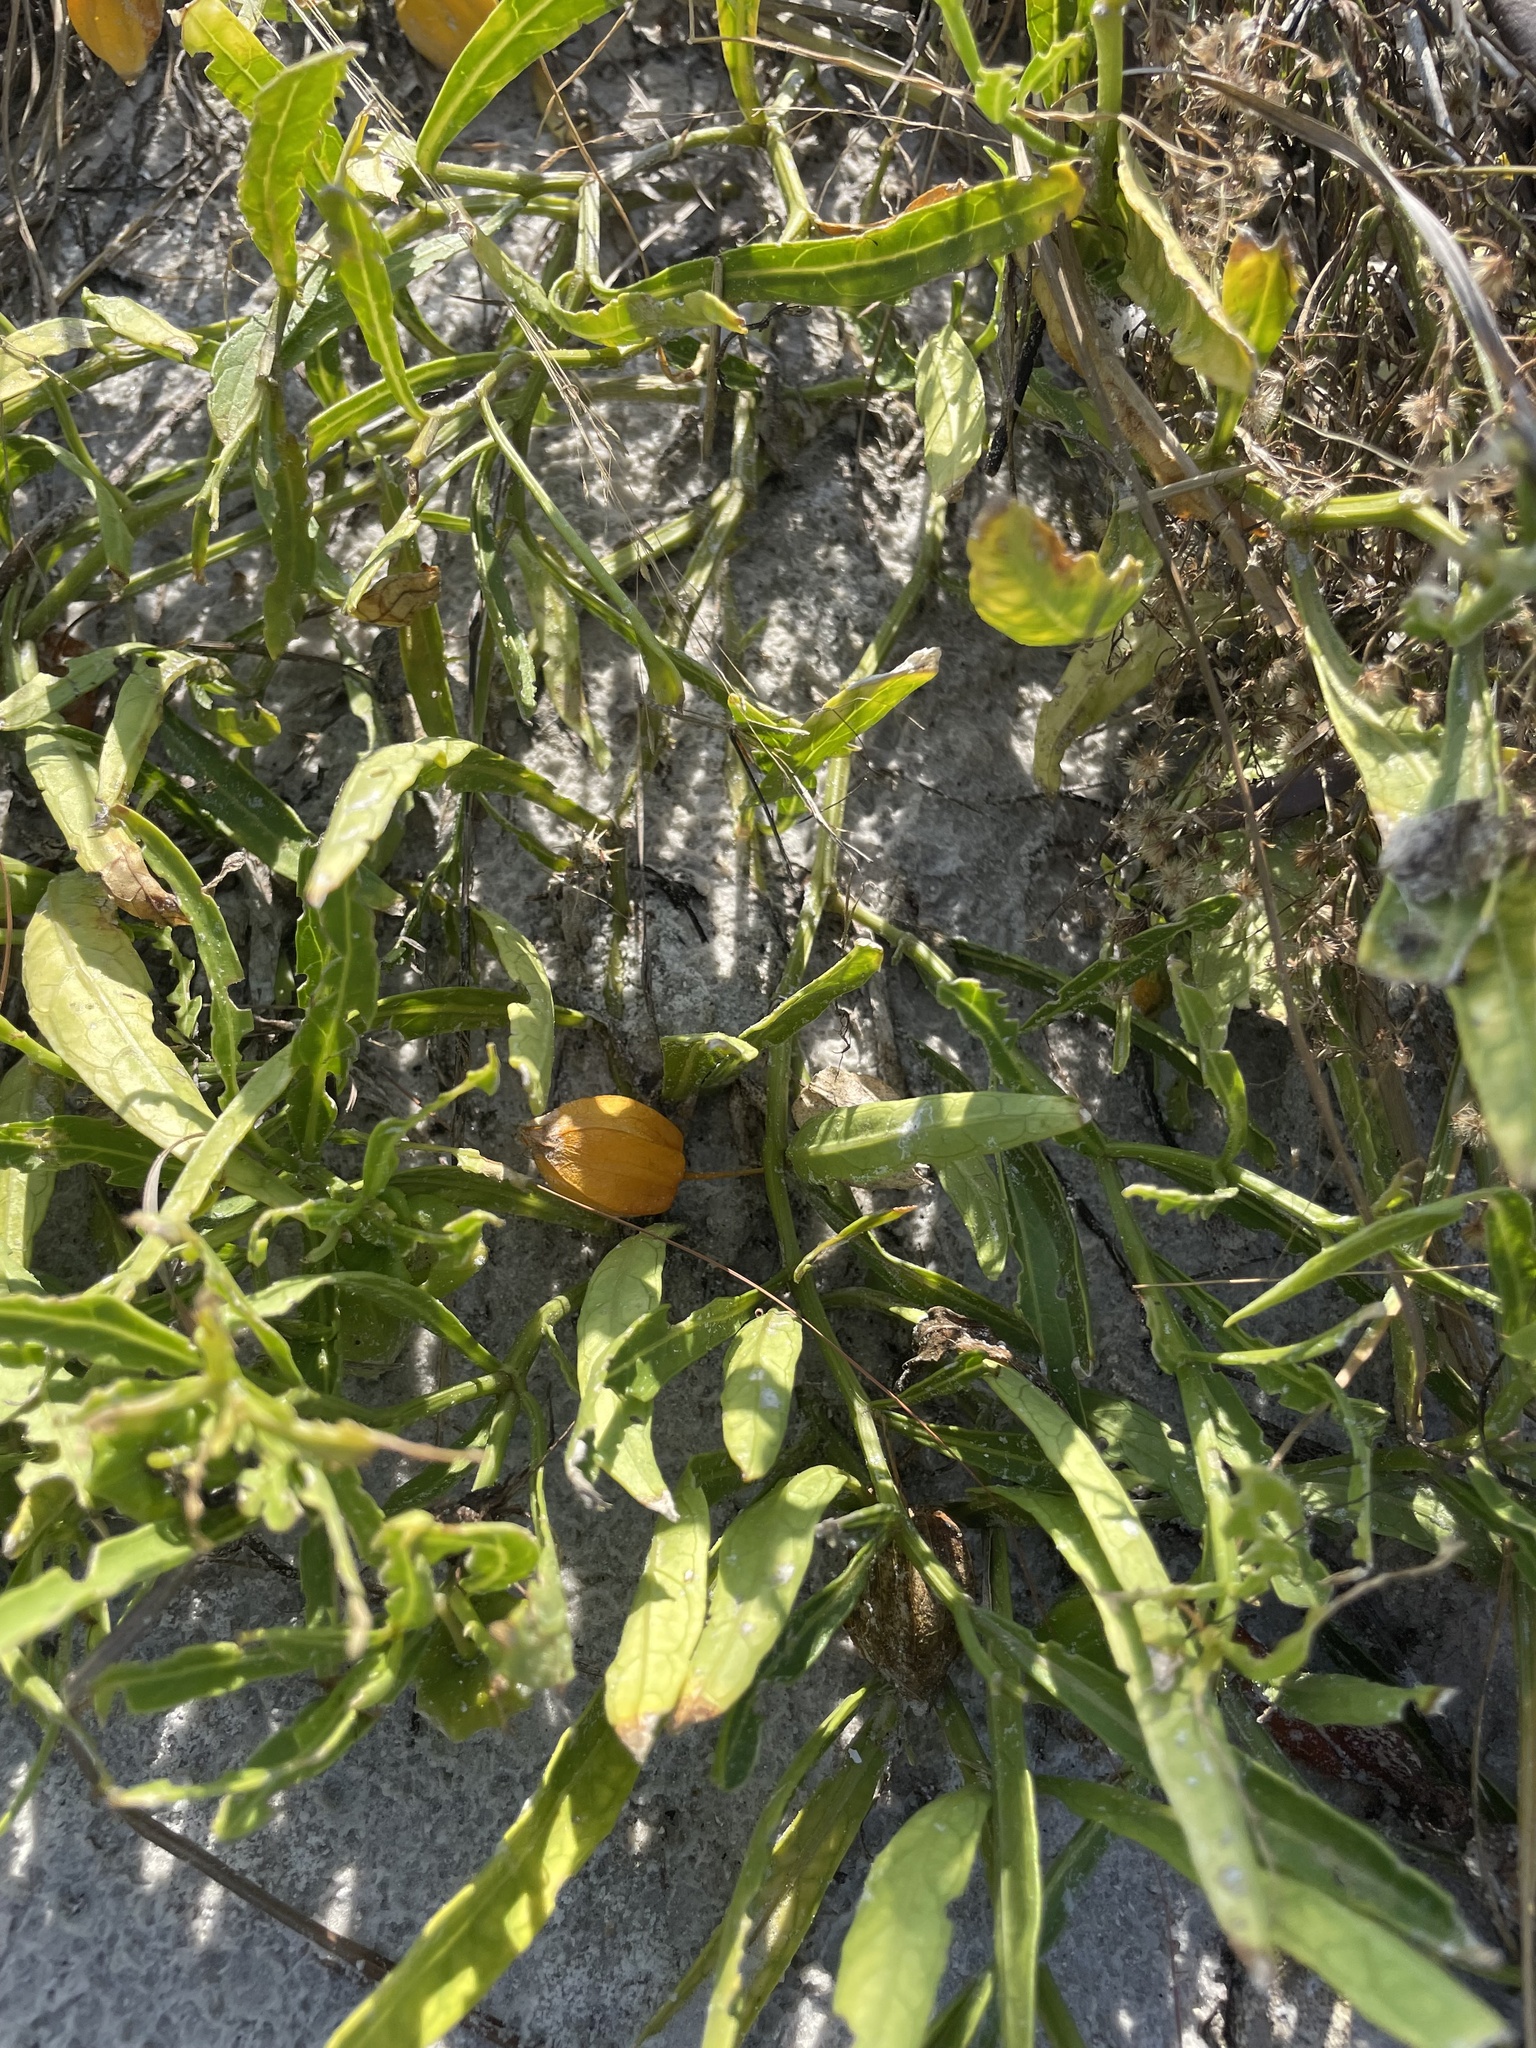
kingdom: Plantae
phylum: Tracheophyta
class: Magnoliopsida
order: Solanales
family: Solanaceae
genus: Physalis
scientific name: Physalis elliottii
